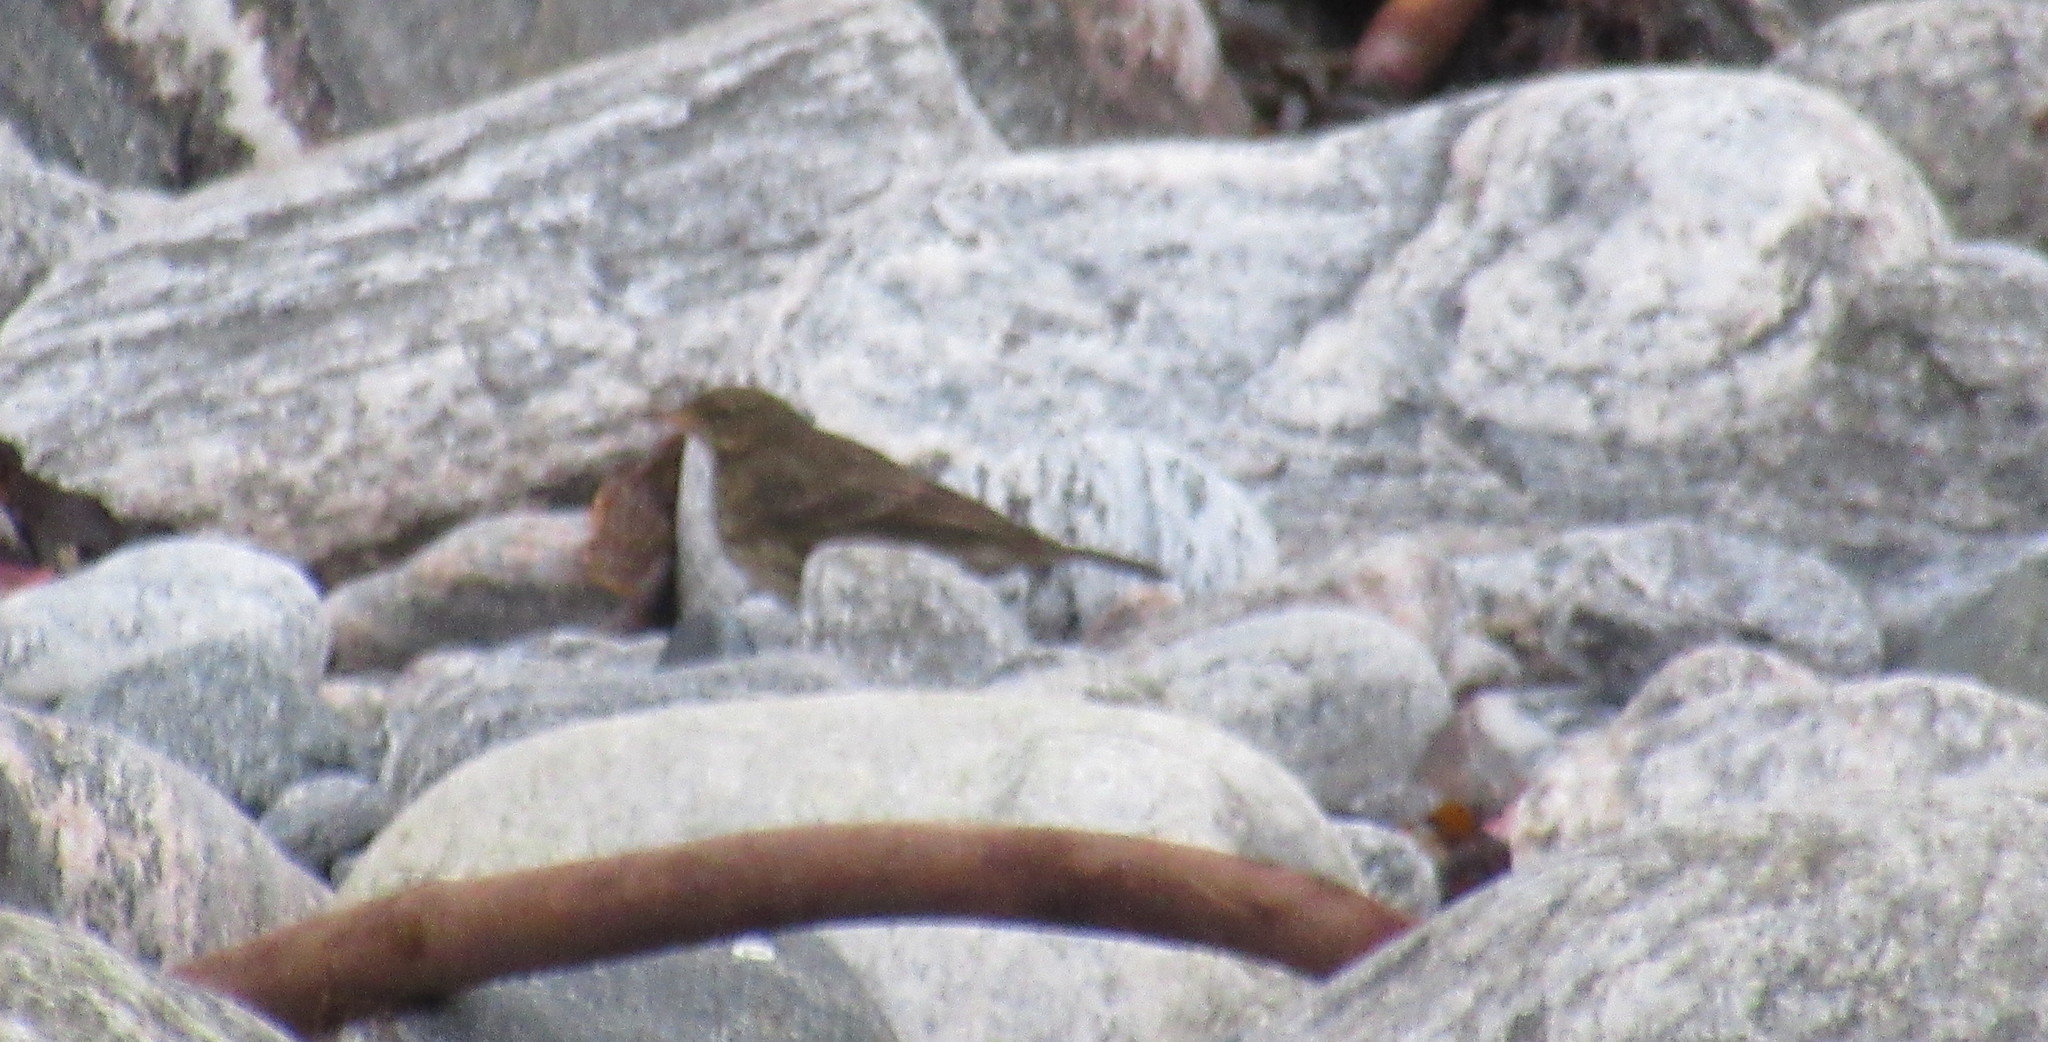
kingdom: Animalia
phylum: Chordata
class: Aves
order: Passeriformes
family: Motacillidae
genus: Anthus
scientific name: Anthus petrosus
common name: Eurasian rock pipit
